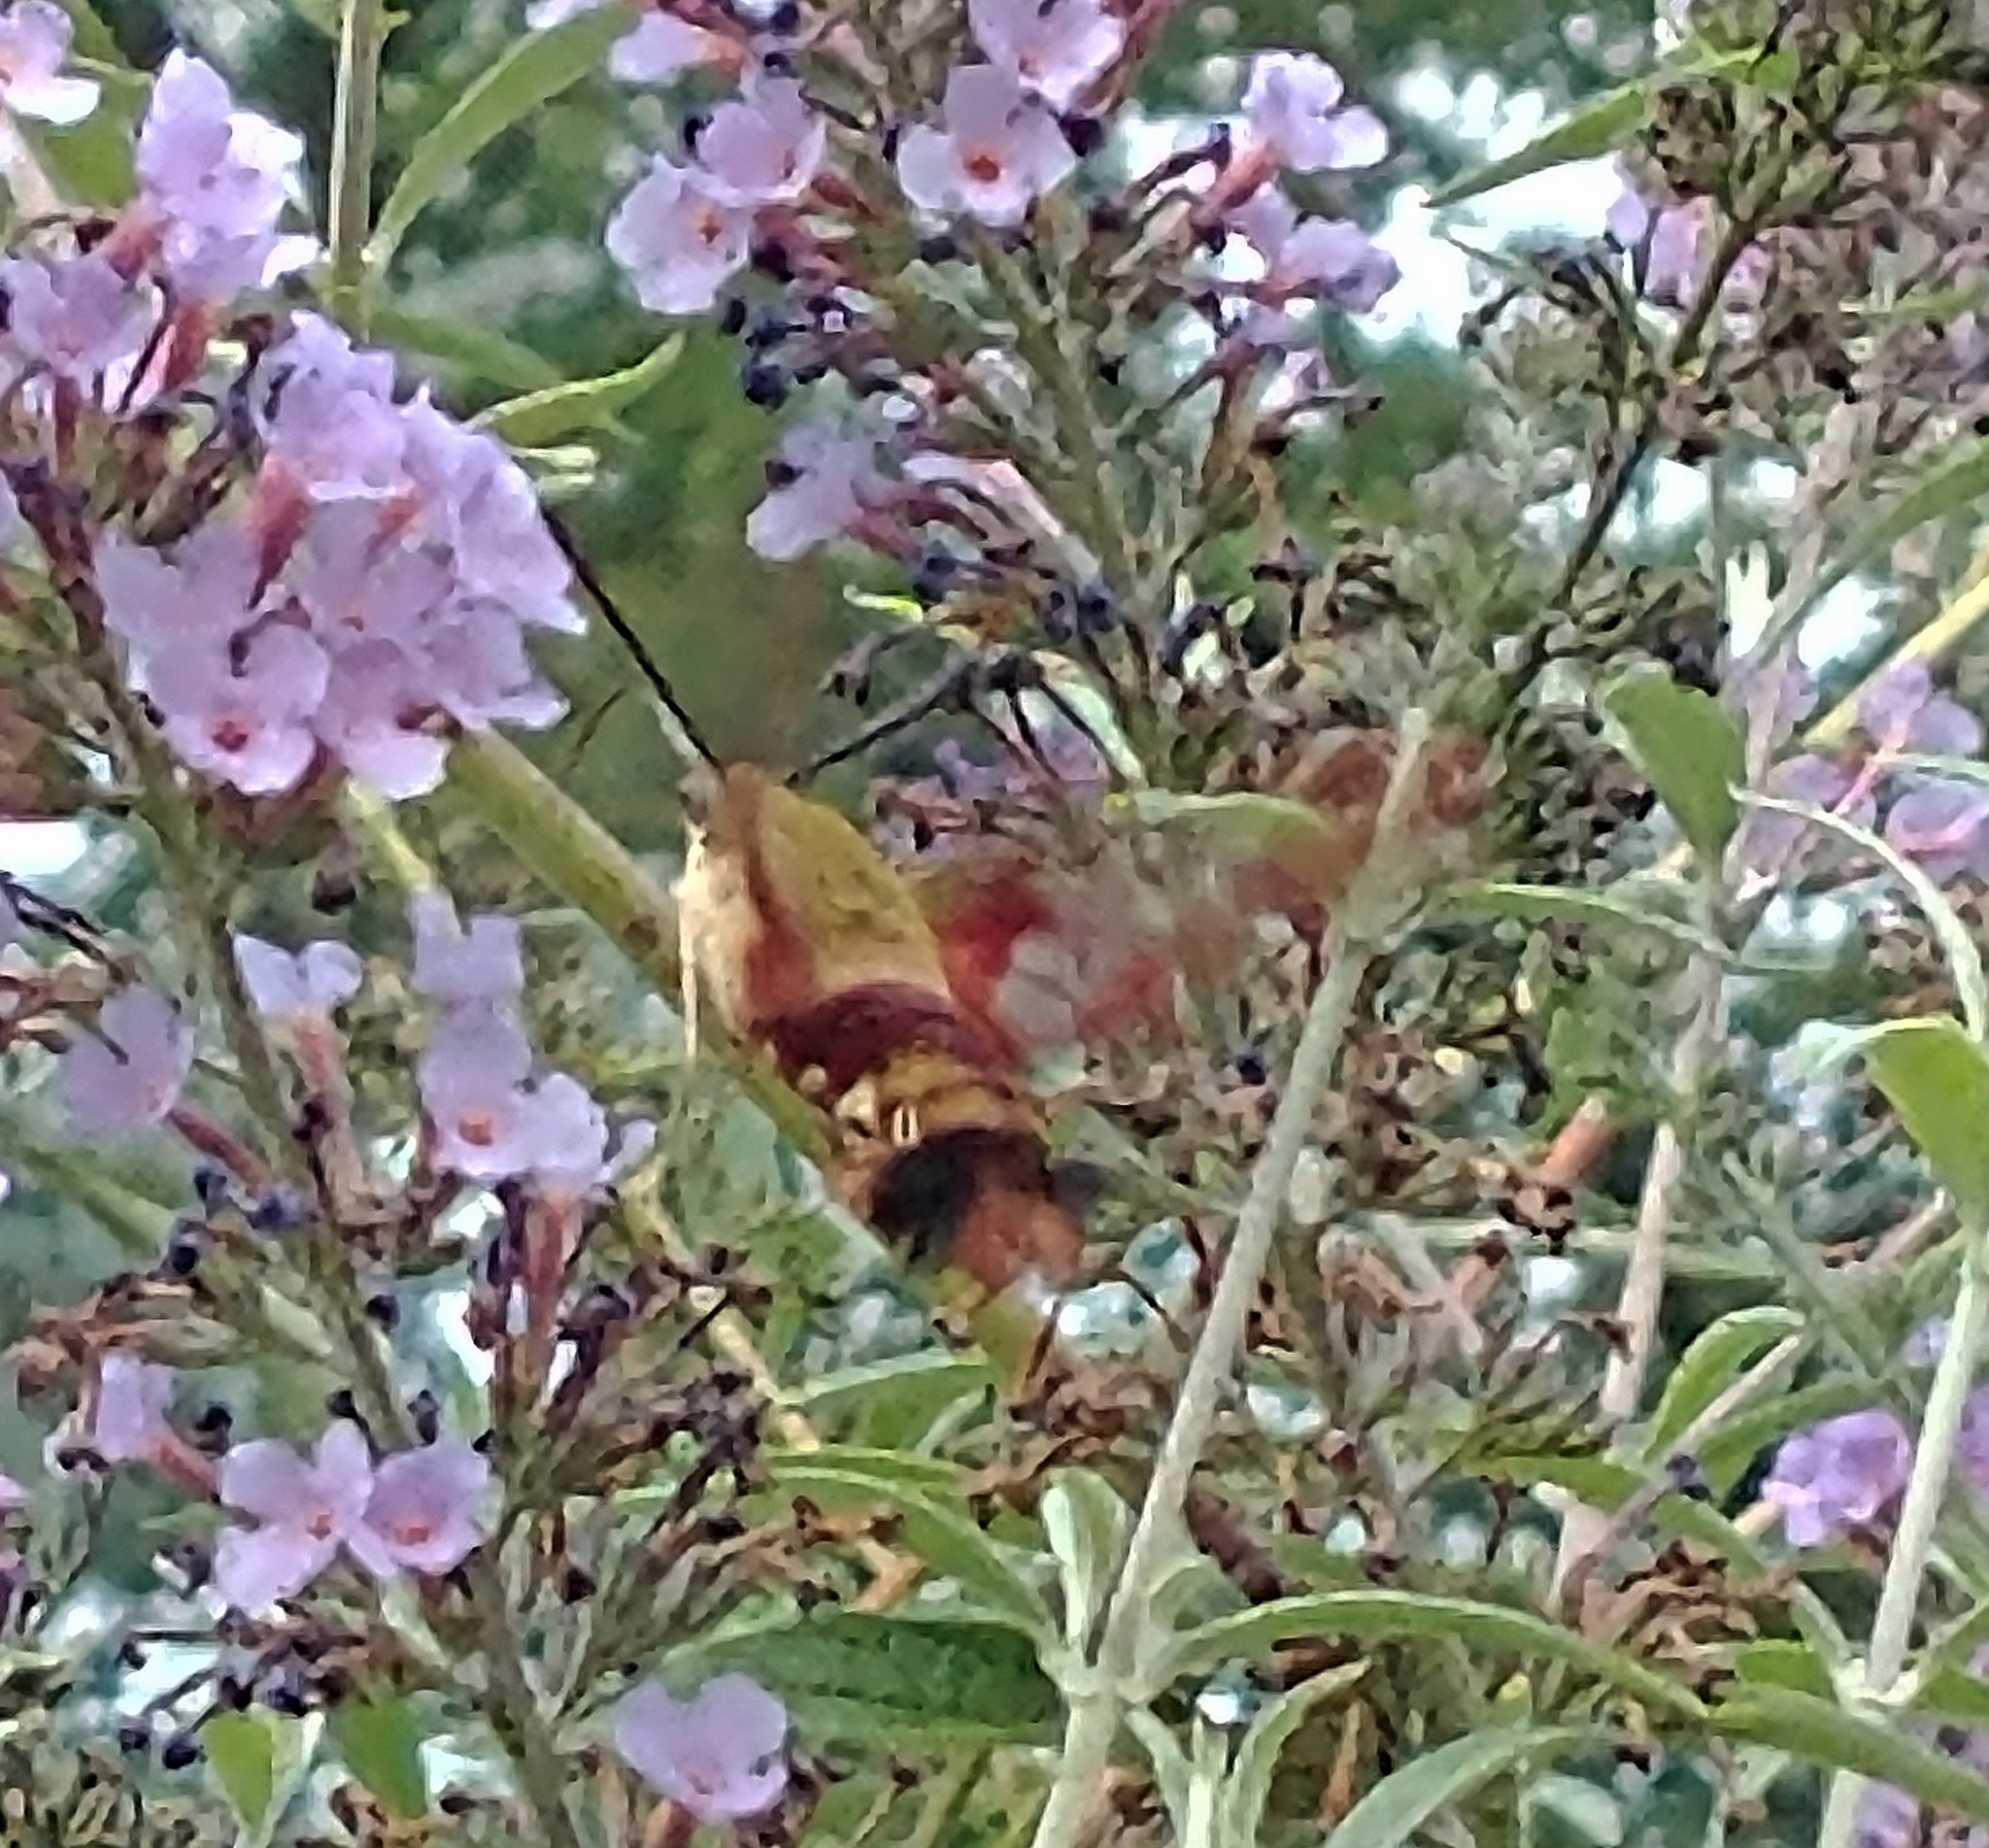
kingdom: Animalia
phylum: Arthropoda
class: Insecta
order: Lepidoptera
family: Sphingidae
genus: Hemaris
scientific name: Hemaris thysbe
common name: Common clear-wing
